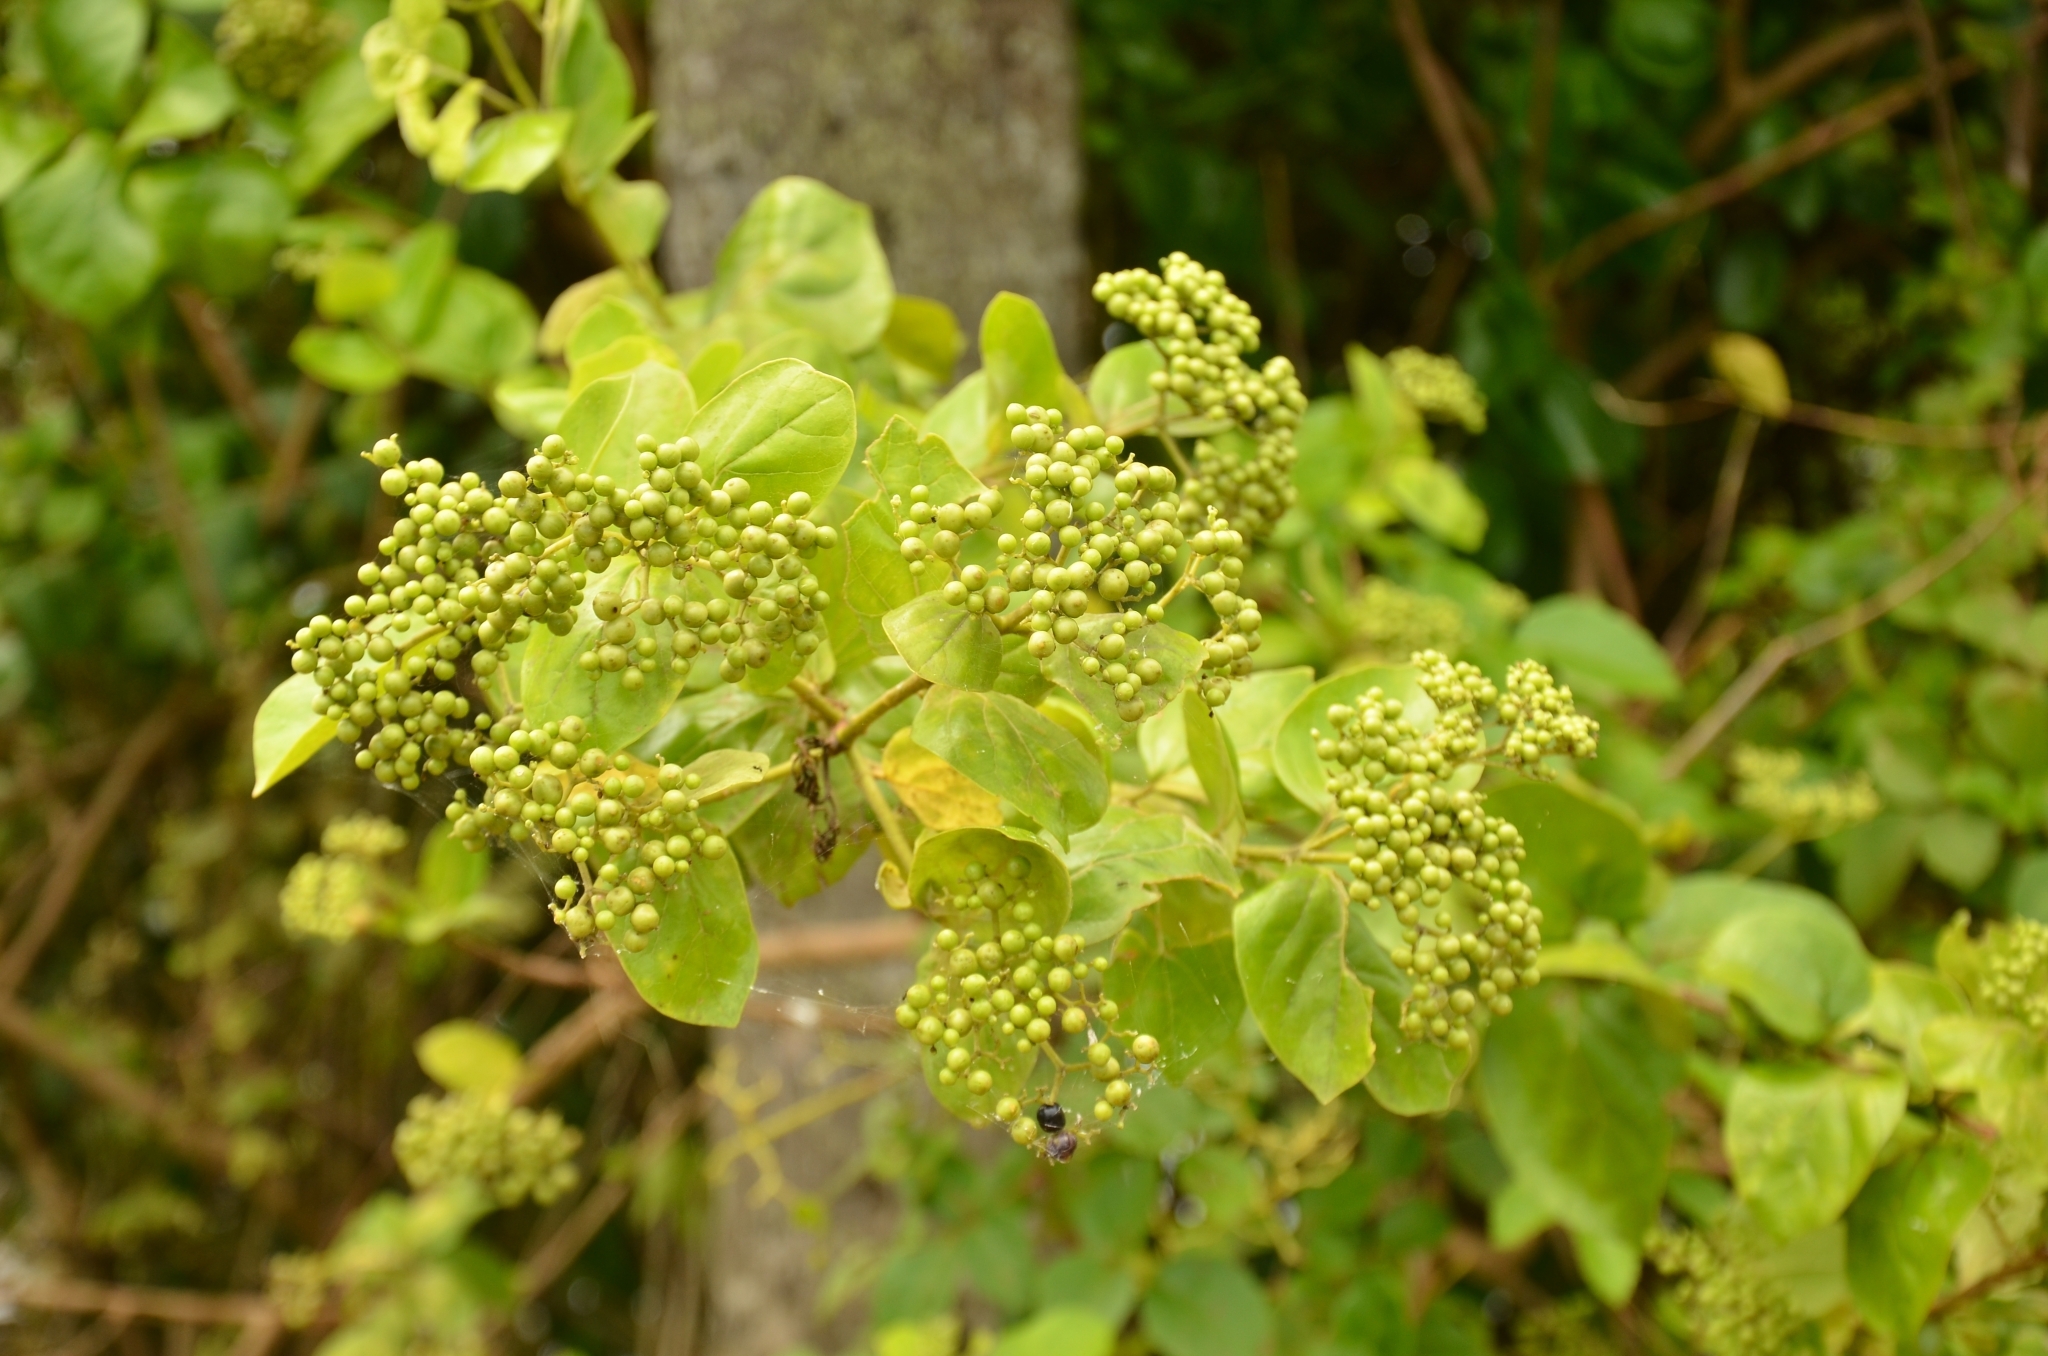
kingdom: Plantae
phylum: Tracheophyta
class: Magnoliopsida
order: Lamiales
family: Lamiaceae
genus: Premna
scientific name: Premna serratifolia
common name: Bastard guelder
